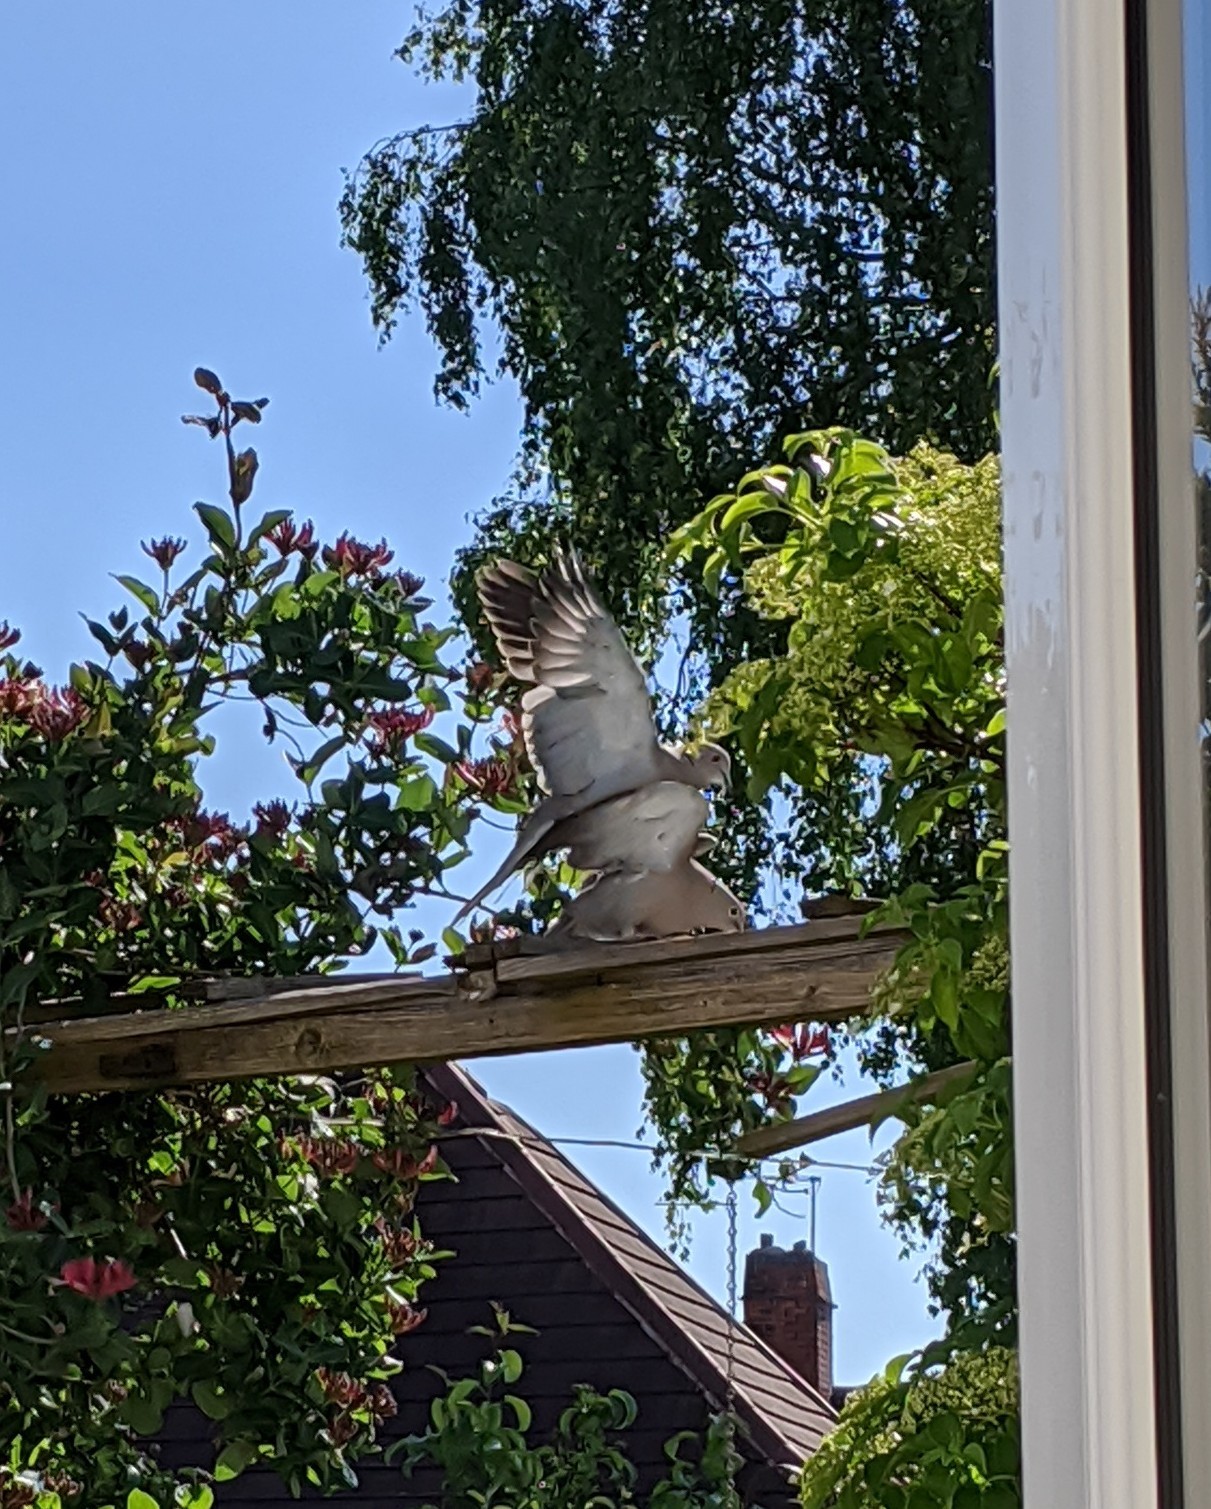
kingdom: Animalia
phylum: Chordata
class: Aves
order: Columbiformes
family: Columbidae
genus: Streptopelia
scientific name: Streptopelia decaocto
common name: Eurasian collared dove
